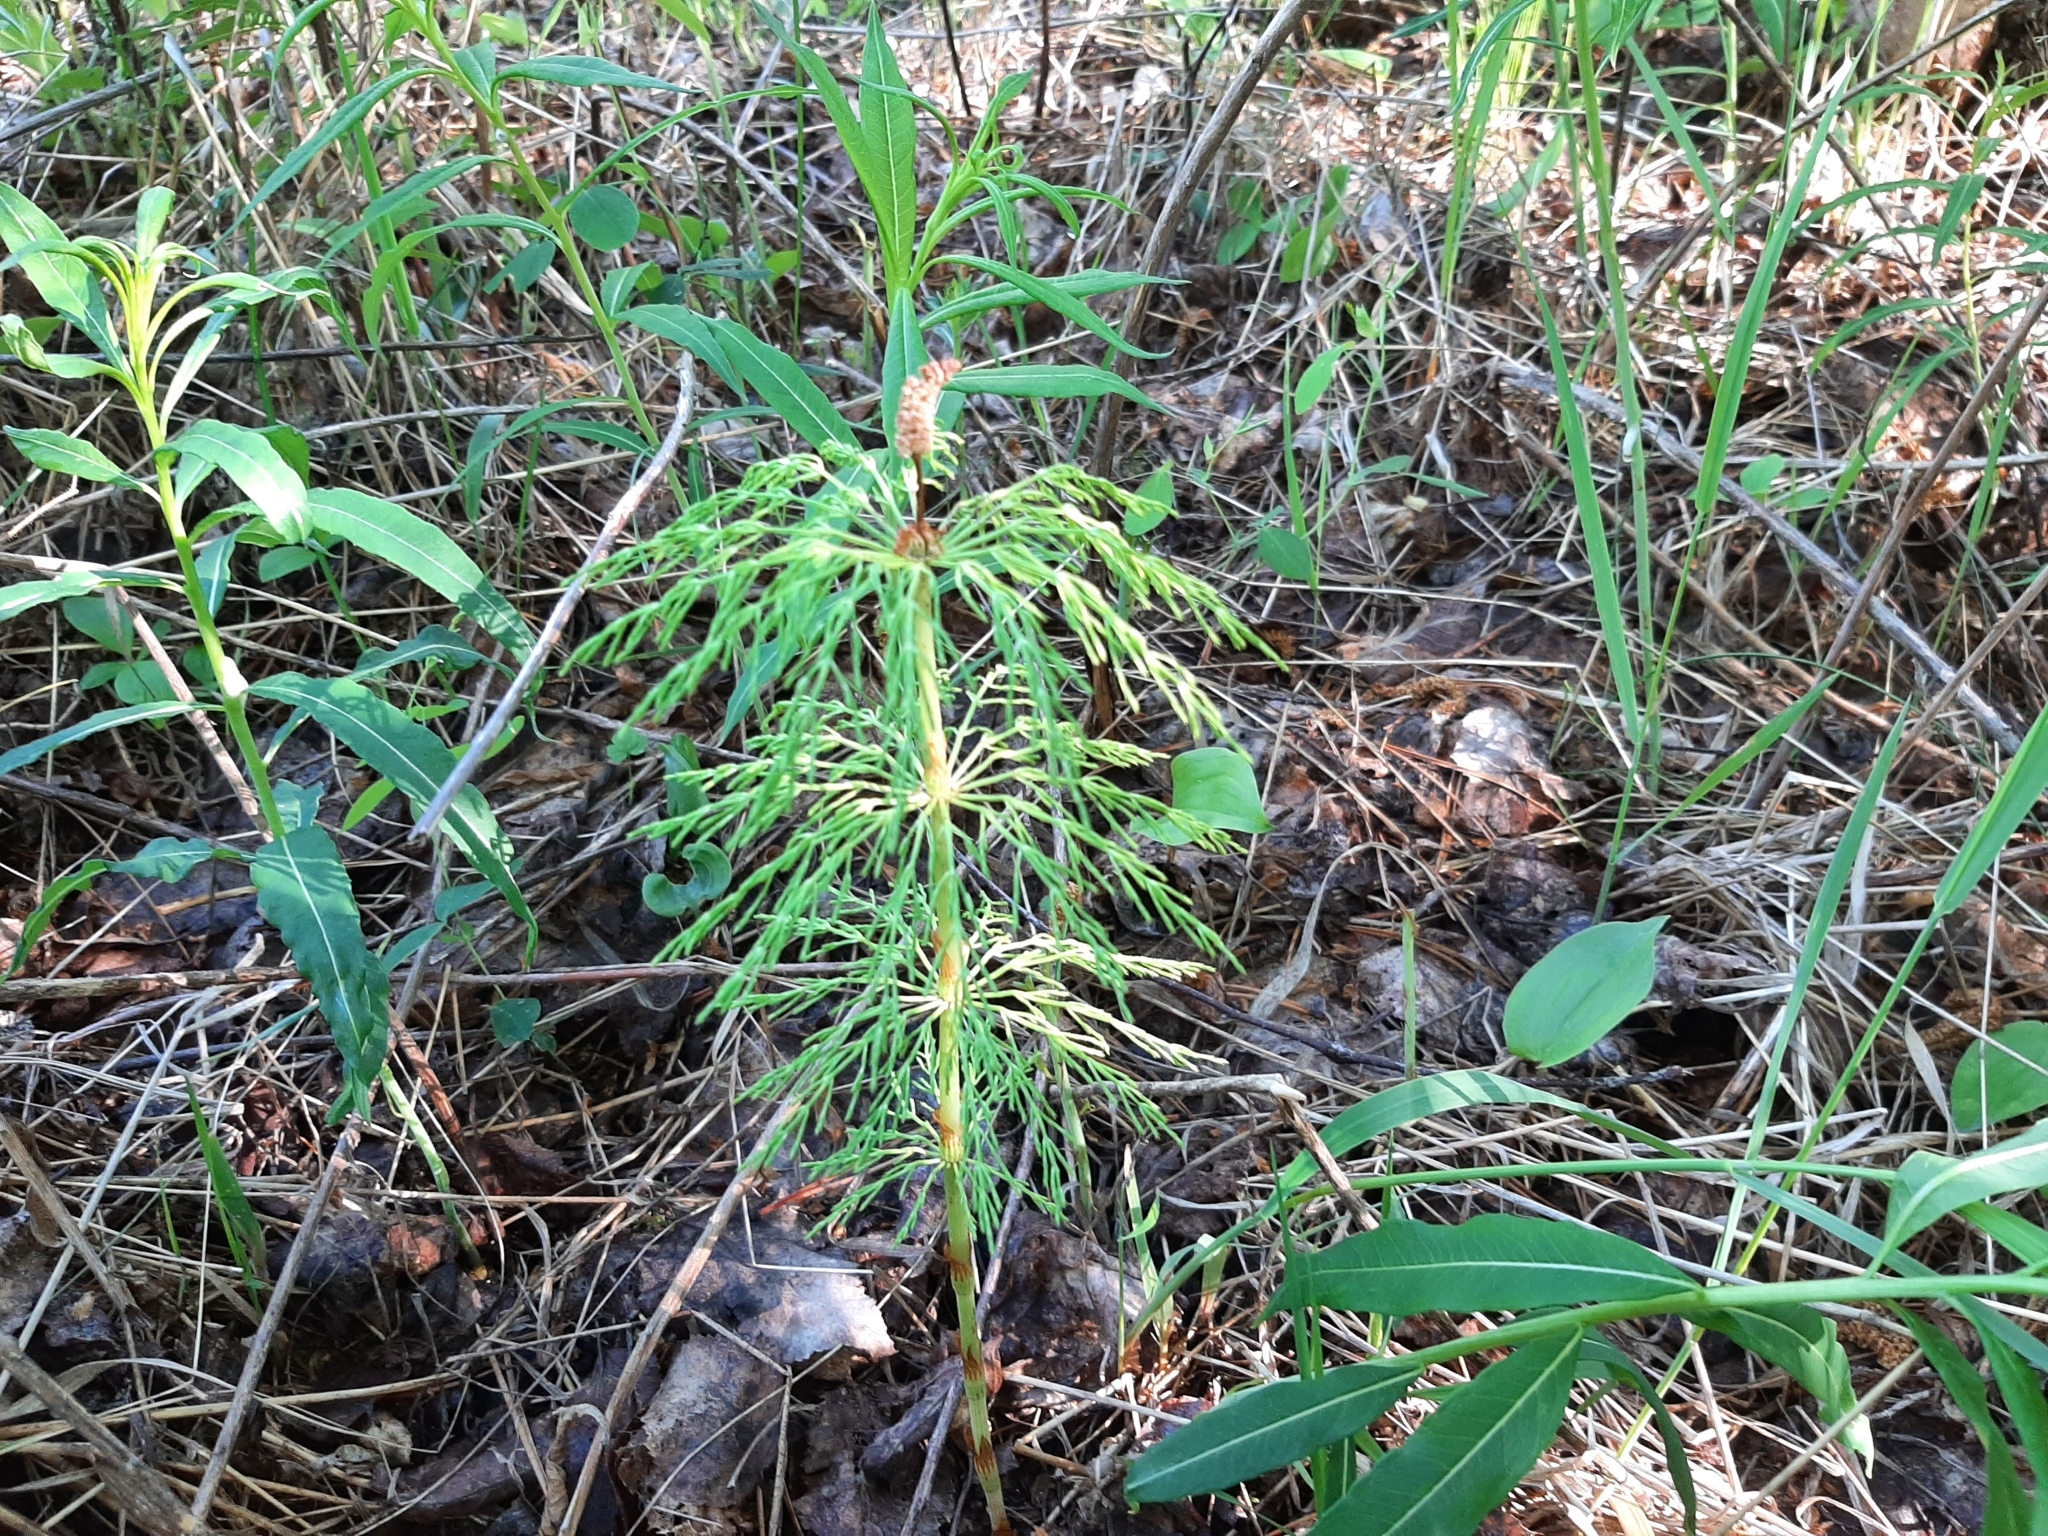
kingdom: Plantae
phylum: Tracheophyta
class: Polypodiopsida
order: Equisetales
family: Equisetaceae
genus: Equisetum
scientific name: Equisetum sylvaticum
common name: Wood horsetail
